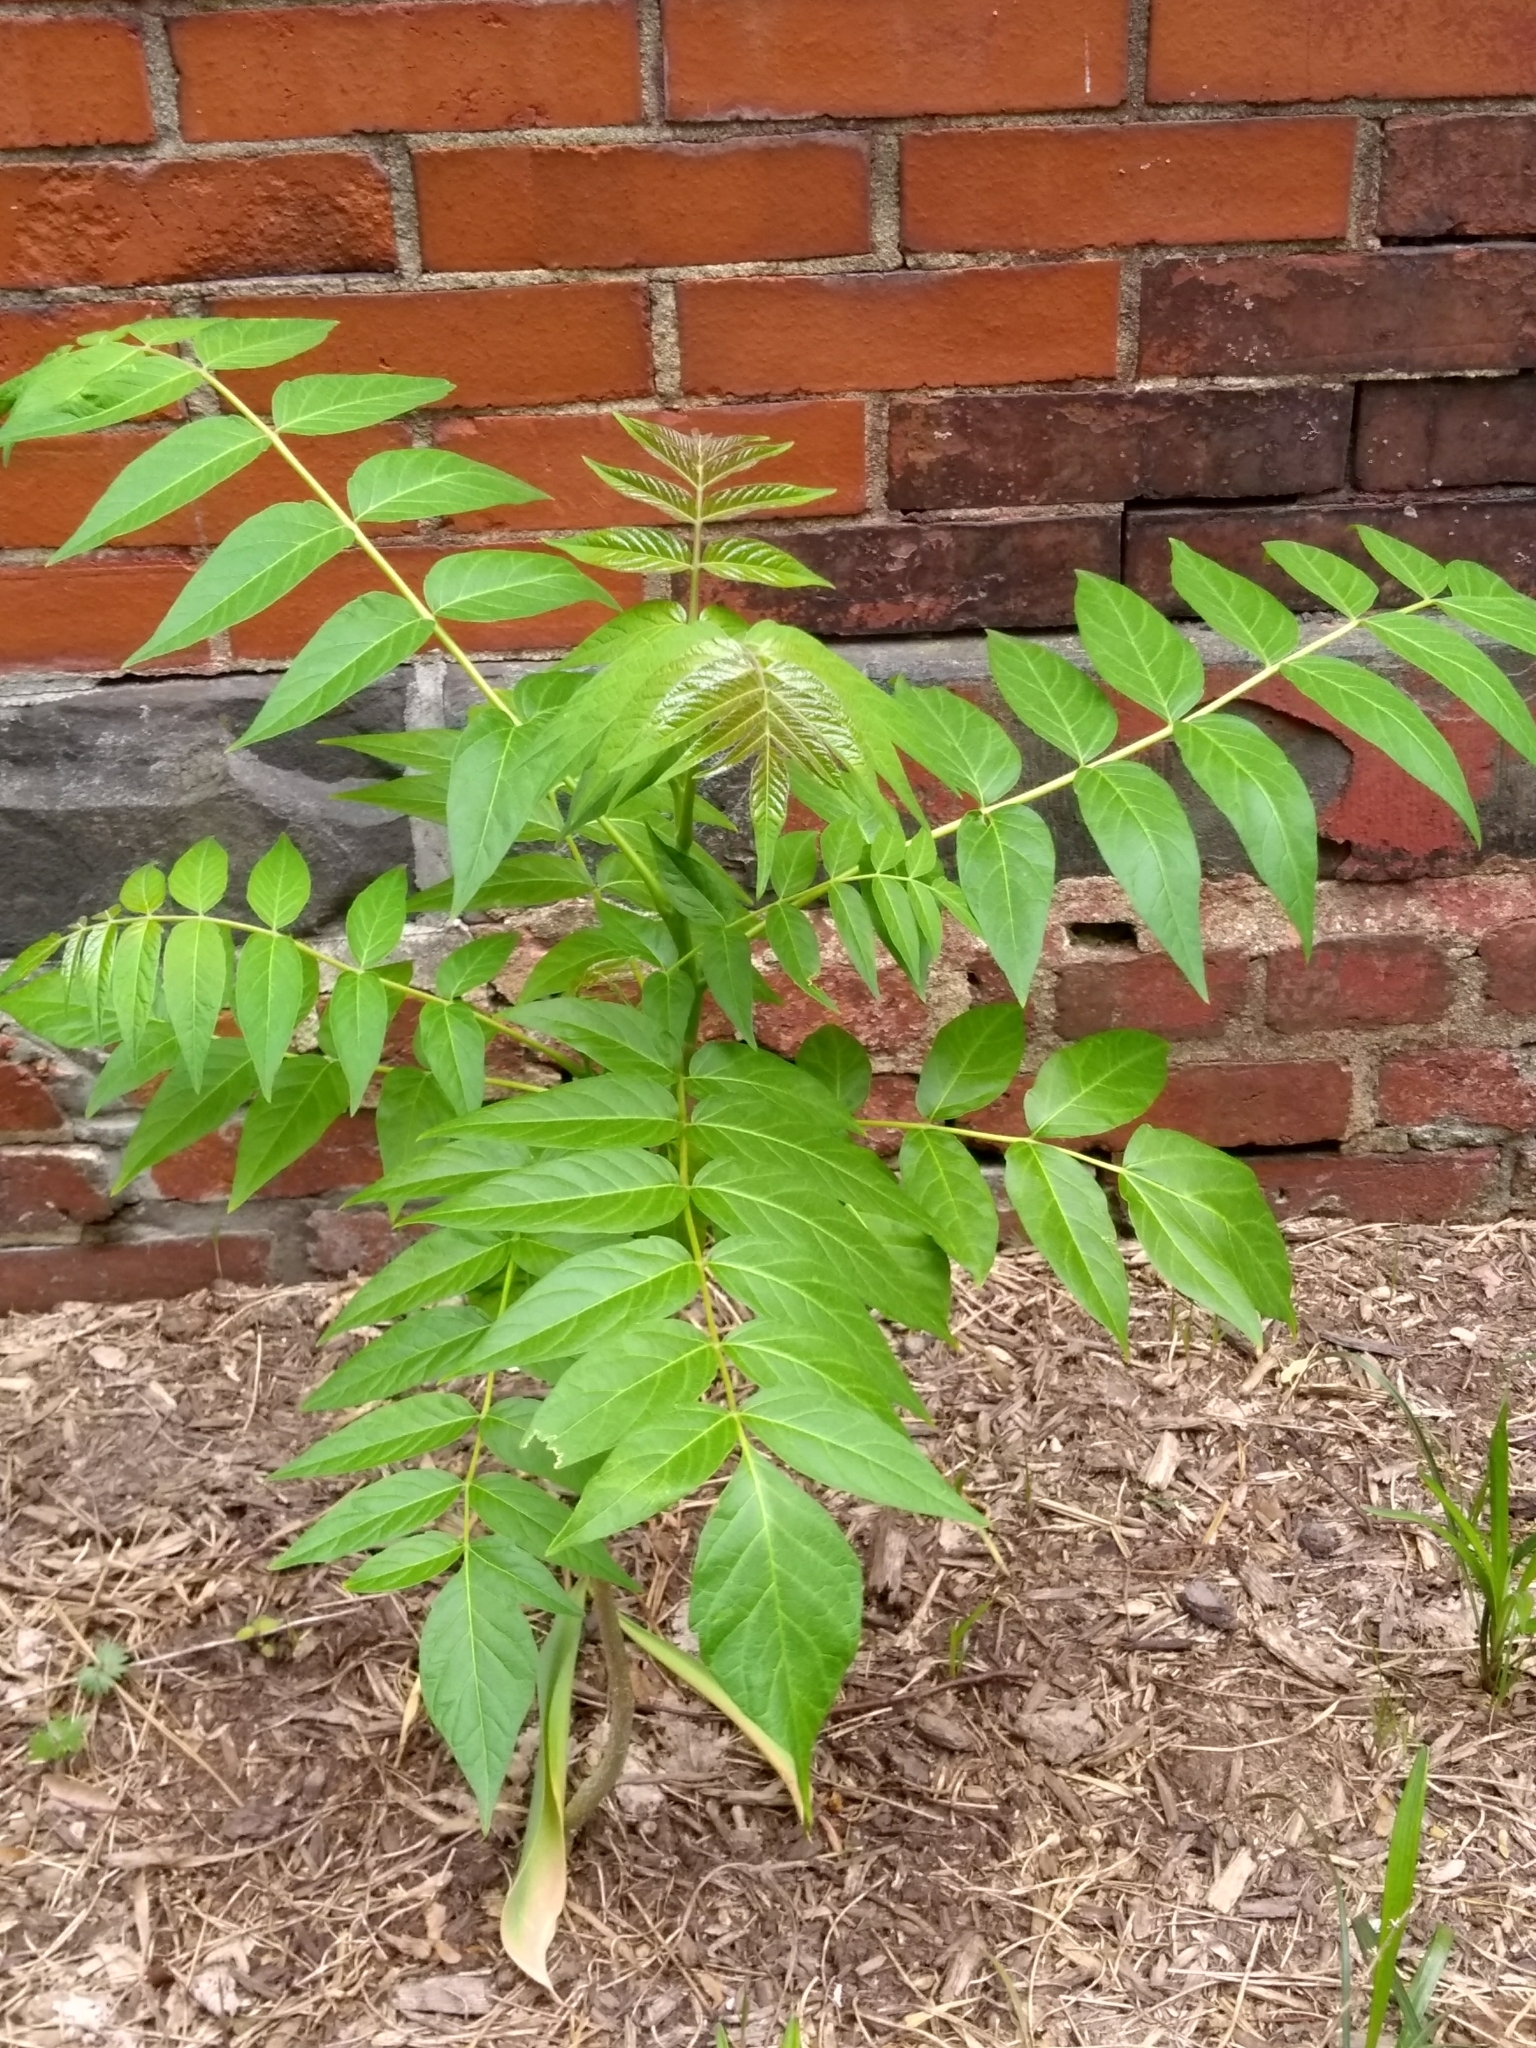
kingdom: Plantae
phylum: Tracheophyta
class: Magnoliopsida
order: Sapindales
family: Simaroubaceae
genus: Ailanthus
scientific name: Ailanthus altissima
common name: Tree-of-heaven
